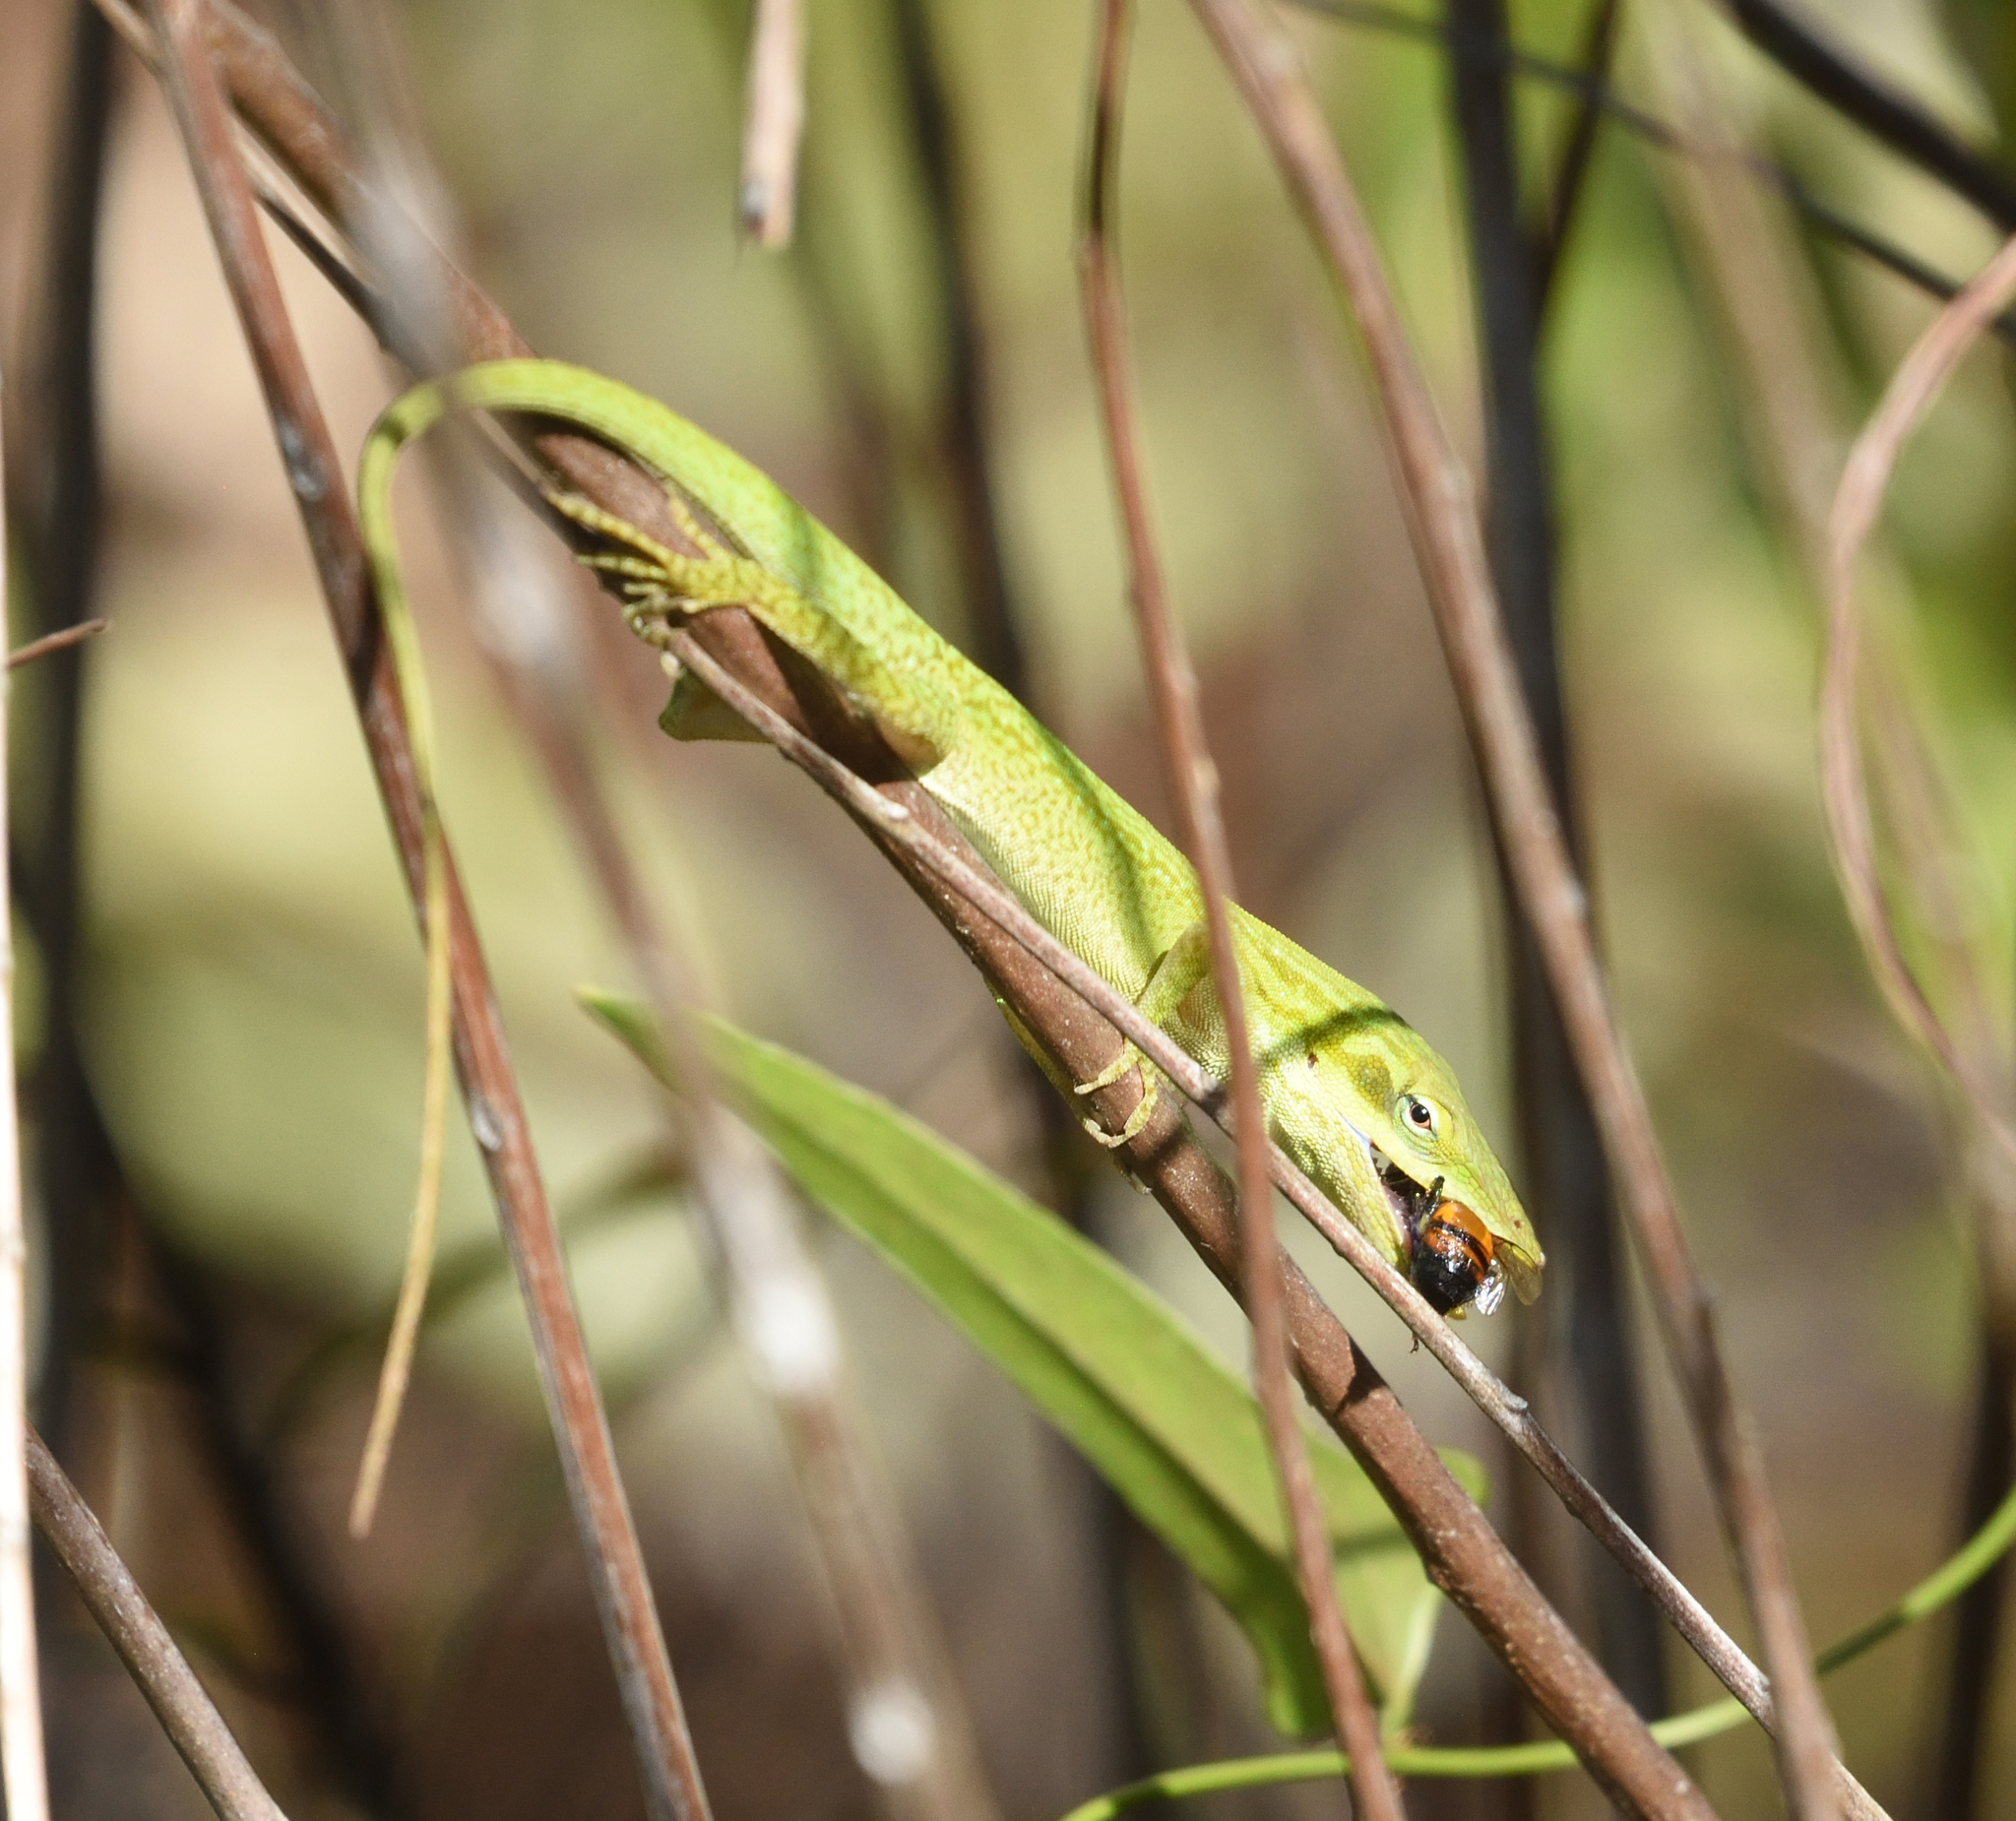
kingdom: Animalia
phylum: Chordata
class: Squamata
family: Dactyloidae
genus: Anolis
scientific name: Anolis carolinensis
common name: Green anole
